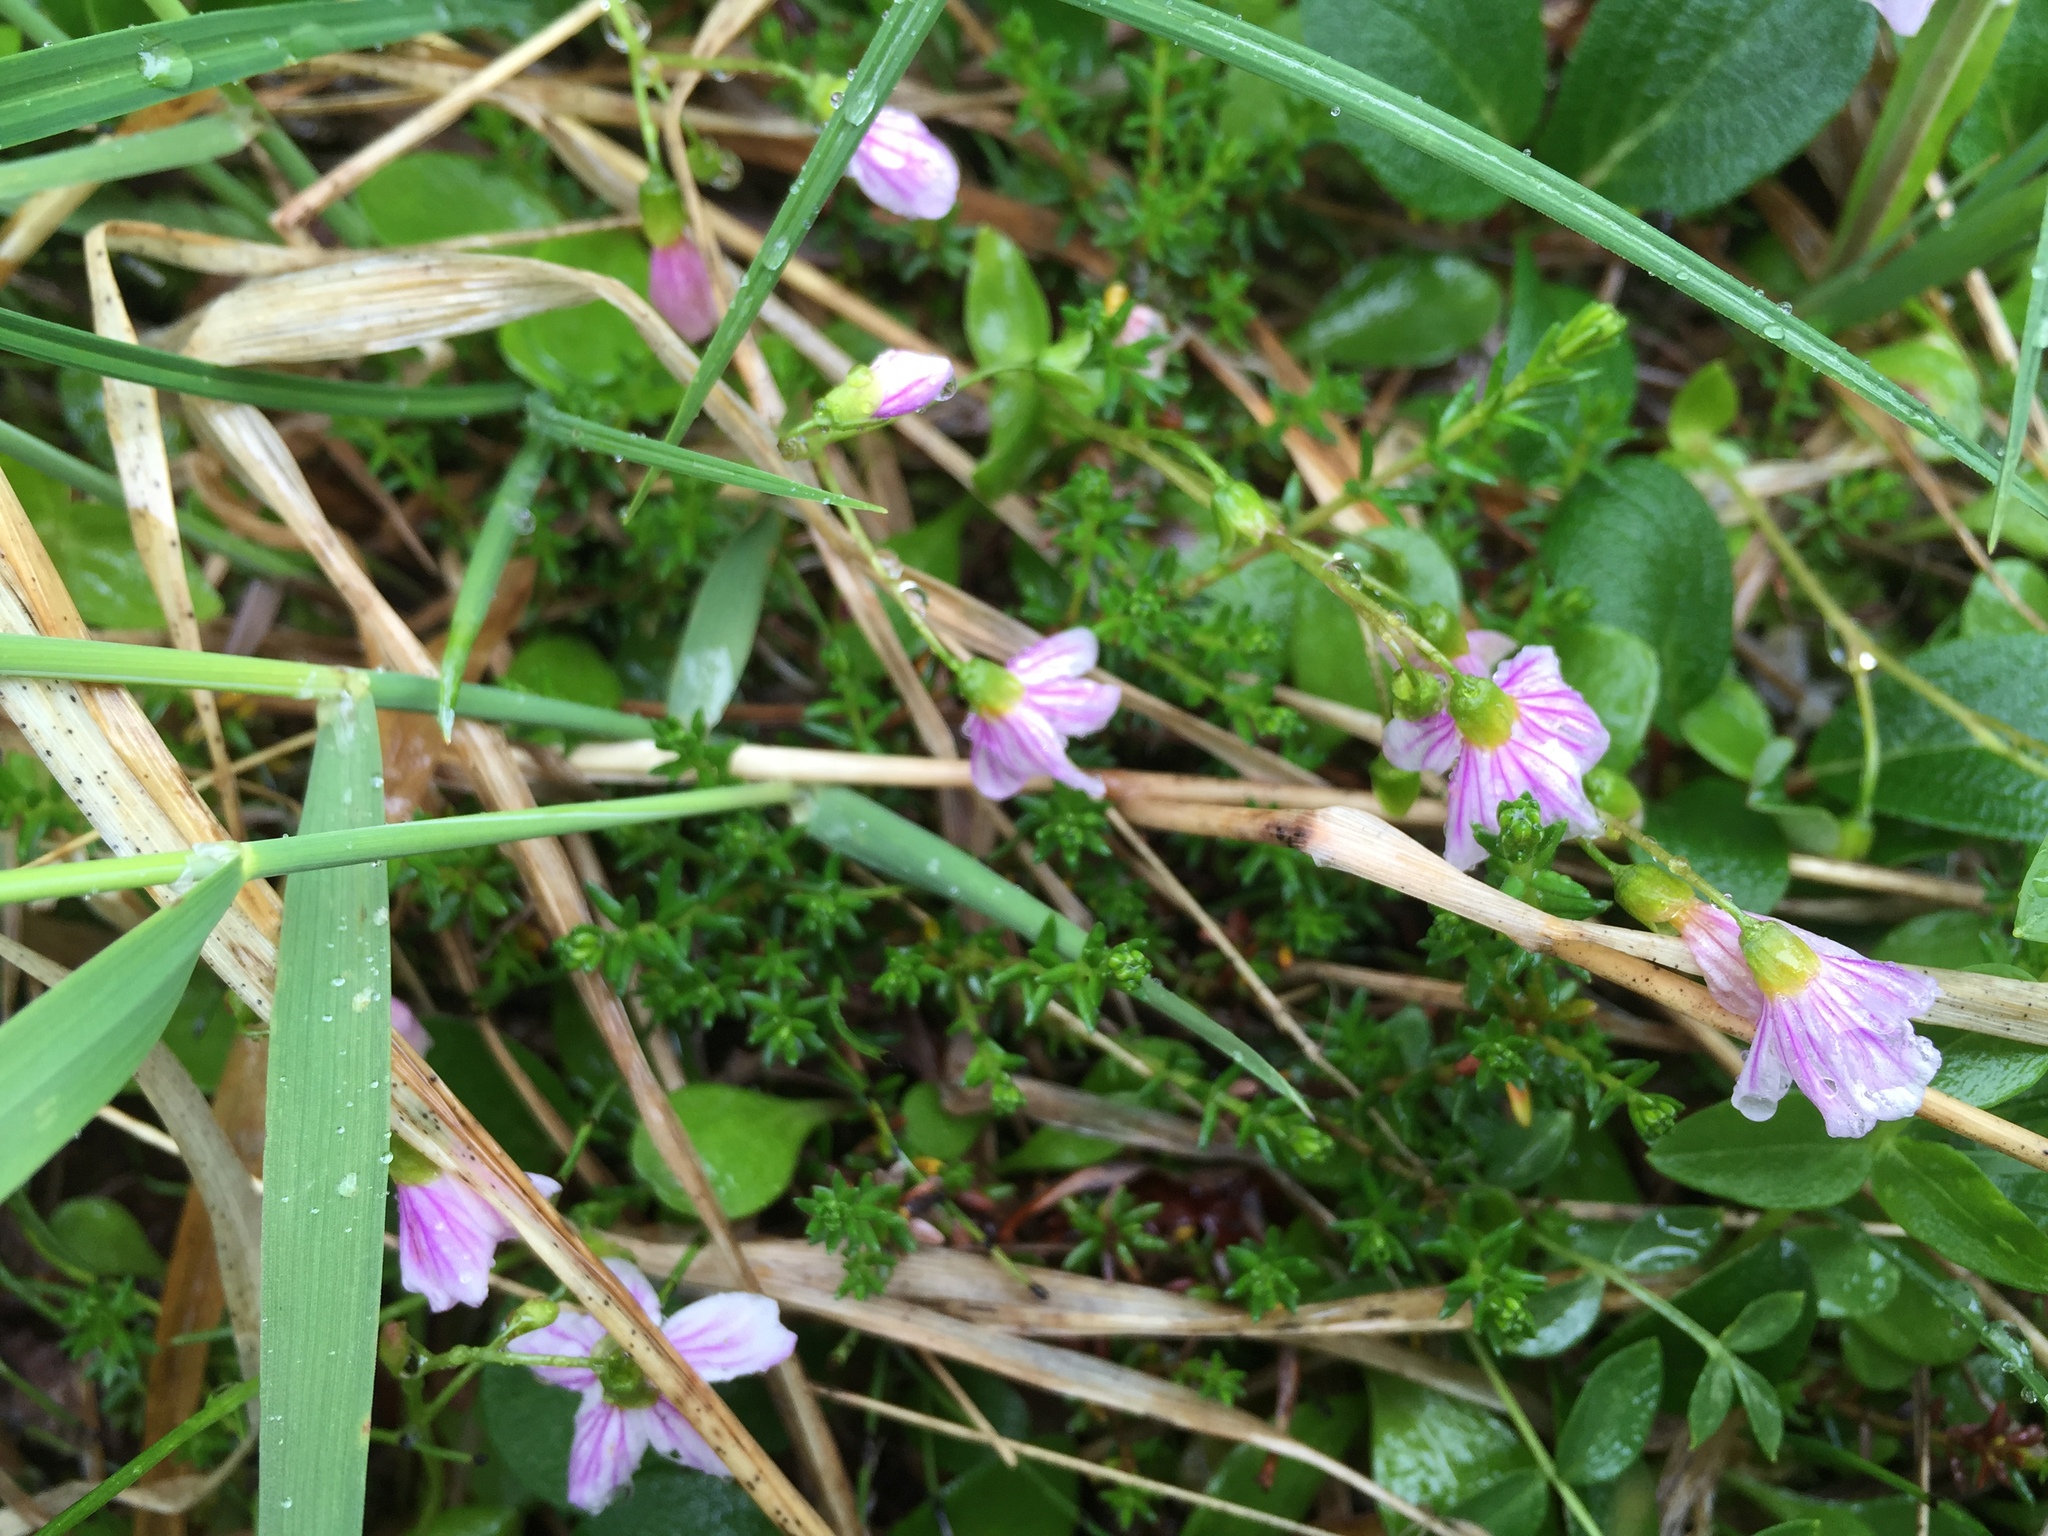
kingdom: Plantae
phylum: Tracheophyta
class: Magnoliopsida
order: Caryophyllales
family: Montiaceae
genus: Claytonia
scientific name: Claytonia sarmentosa
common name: Alaska spring beauty
